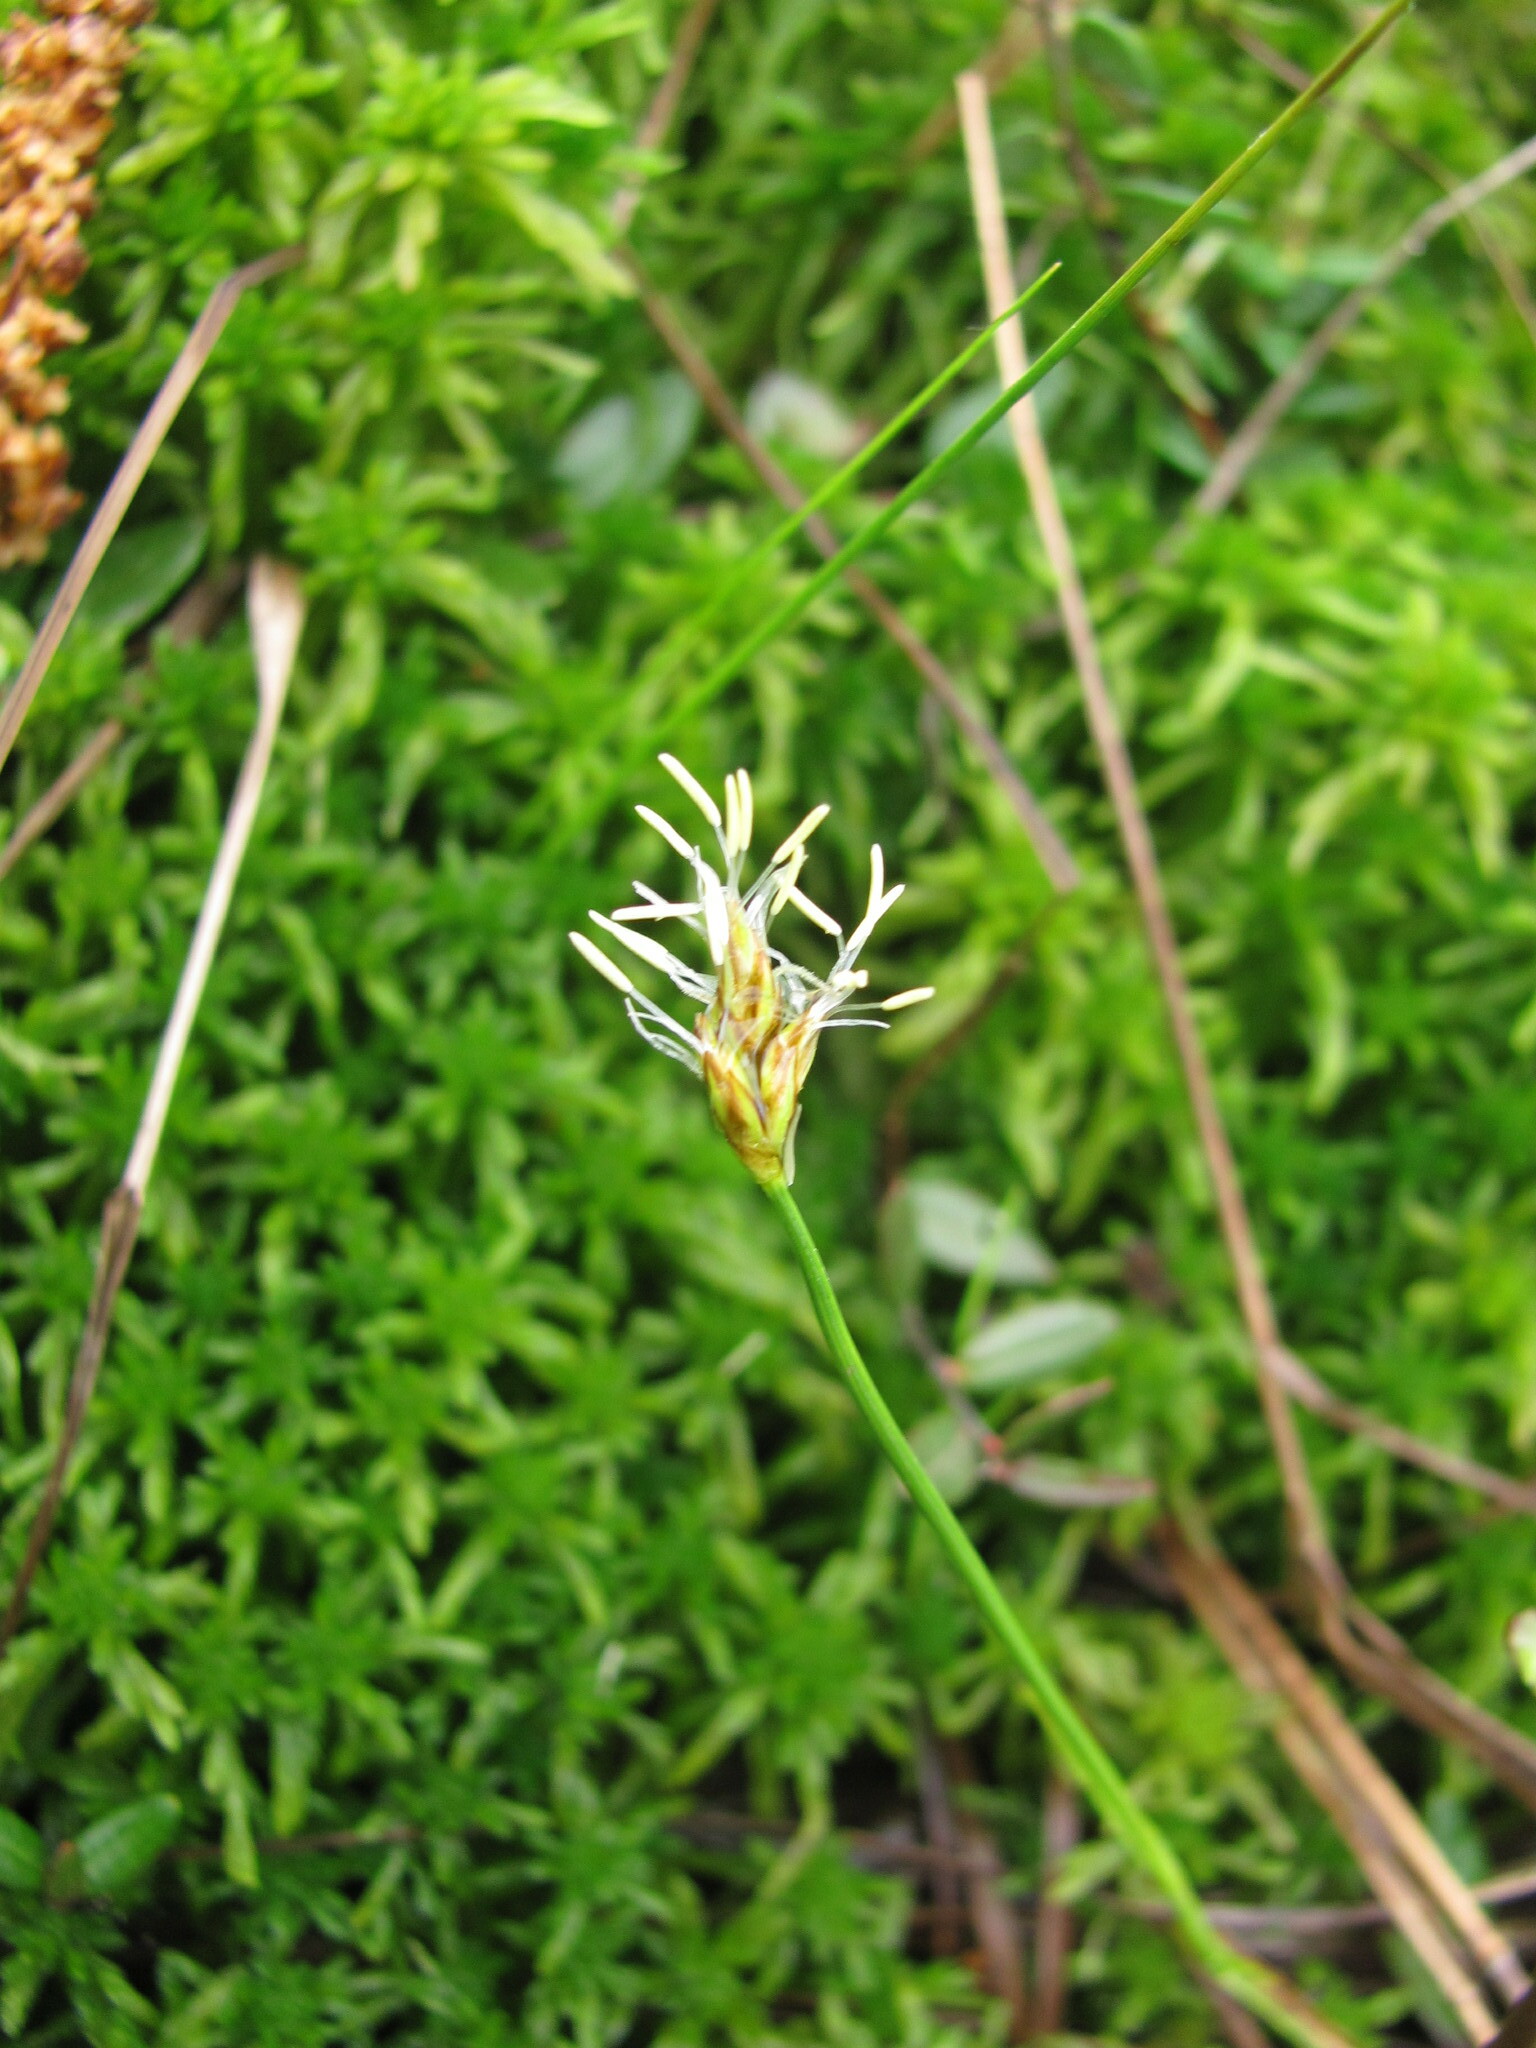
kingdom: Plantae
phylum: Tracheophyta
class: Liliopsida
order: Poales
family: Cyperaceae
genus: Carex
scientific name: Carex chordorrhiza
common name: String sedge
